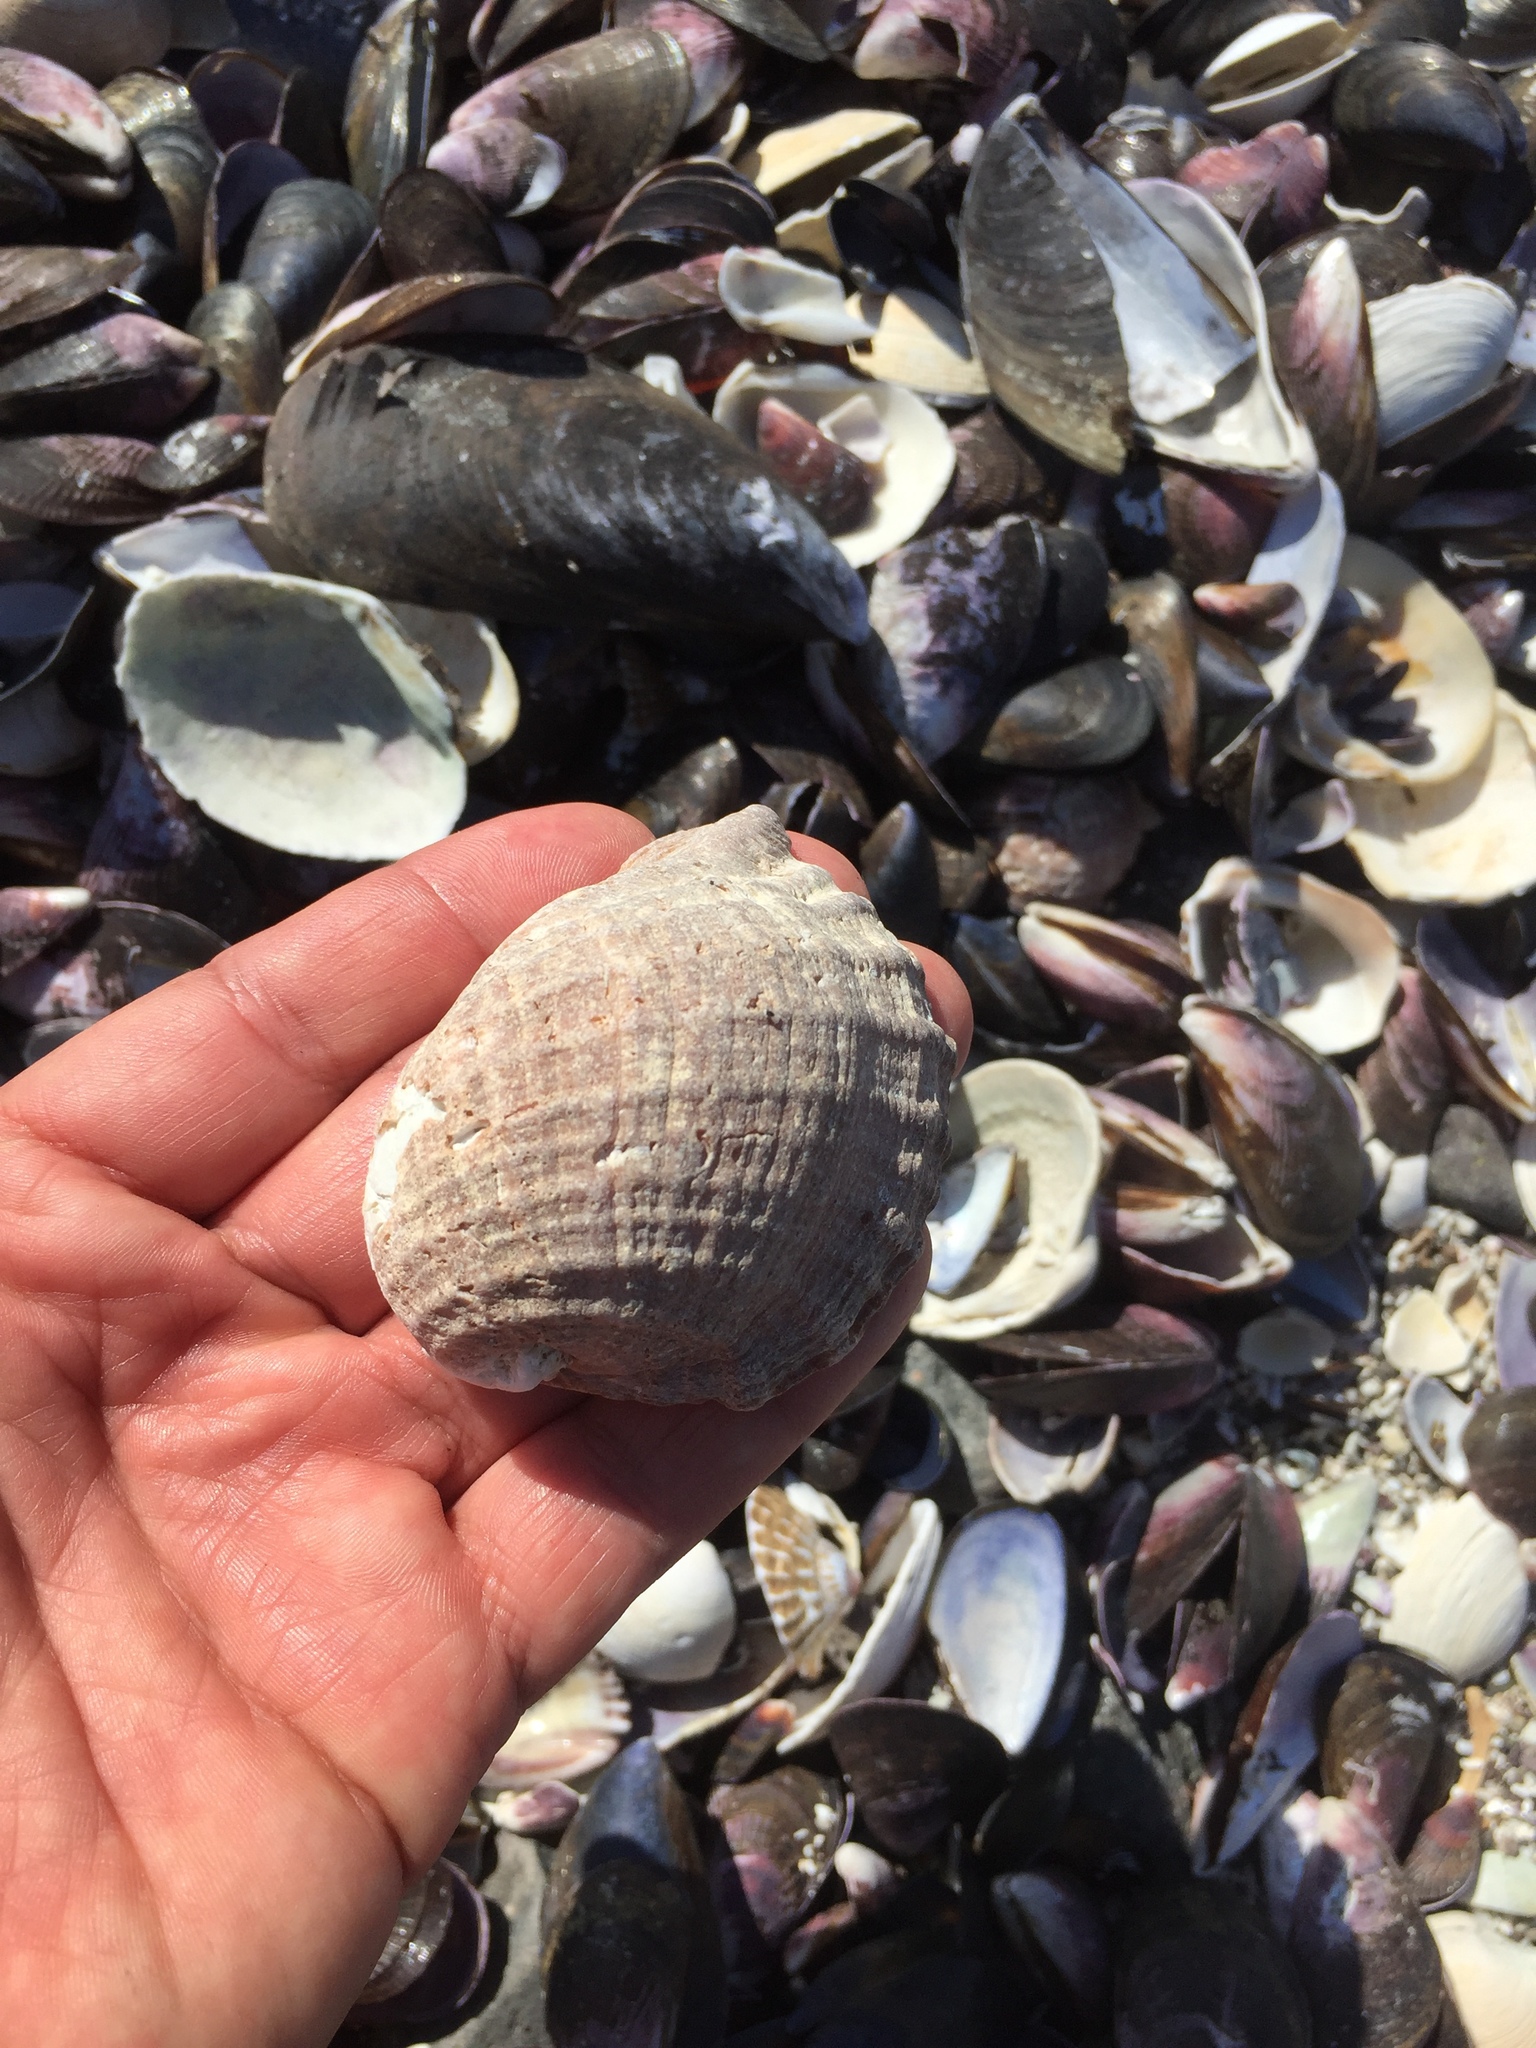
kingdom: Animalia
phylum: Mollusca
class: Gastropoda
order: Neogastropoda
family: Muricidae
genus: Concholepas
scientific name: Concholepas concholepas
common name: Chilean abalone
